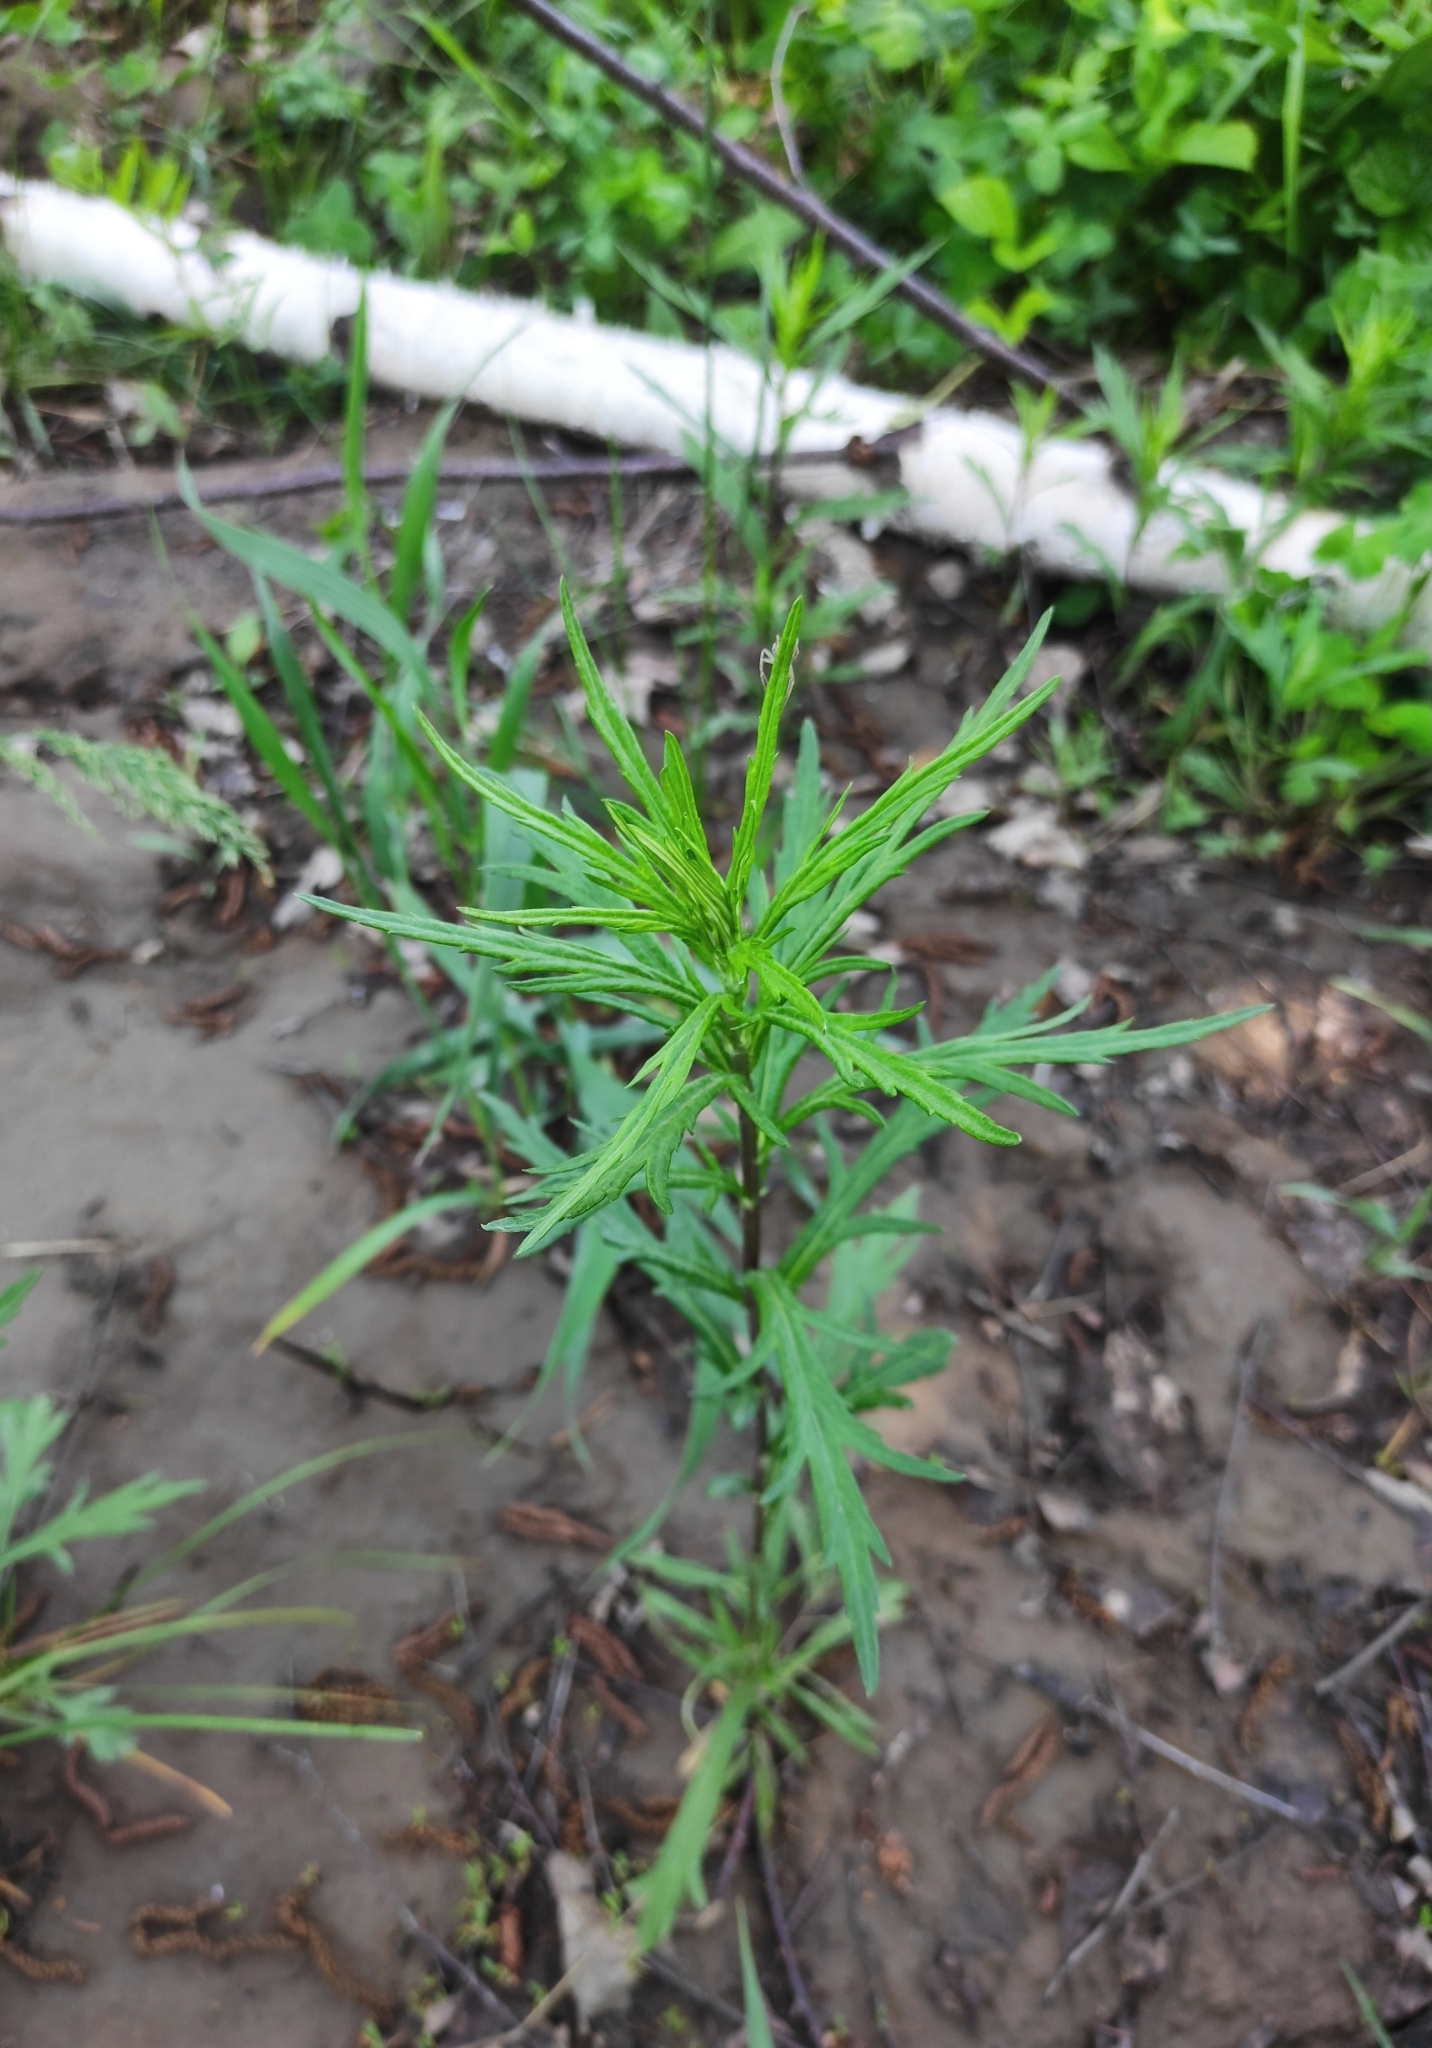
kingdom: Plantae
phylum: Tracheophyta
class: Magnoliopsida
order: Asterales
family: Asteraceae
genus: Artemisia
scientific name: Artemisia integrifolia
